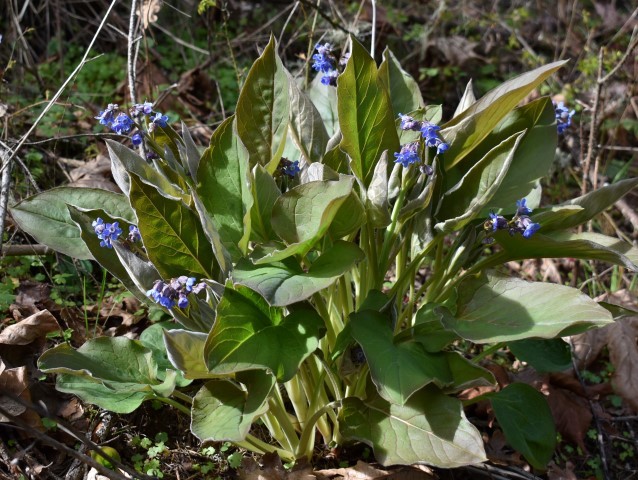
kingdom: Plantae
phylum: Tracheophyta
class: Magnoliopsida
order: Boraginales
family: Boraginaceae
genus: Adelinia
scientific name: Adelinia grande
